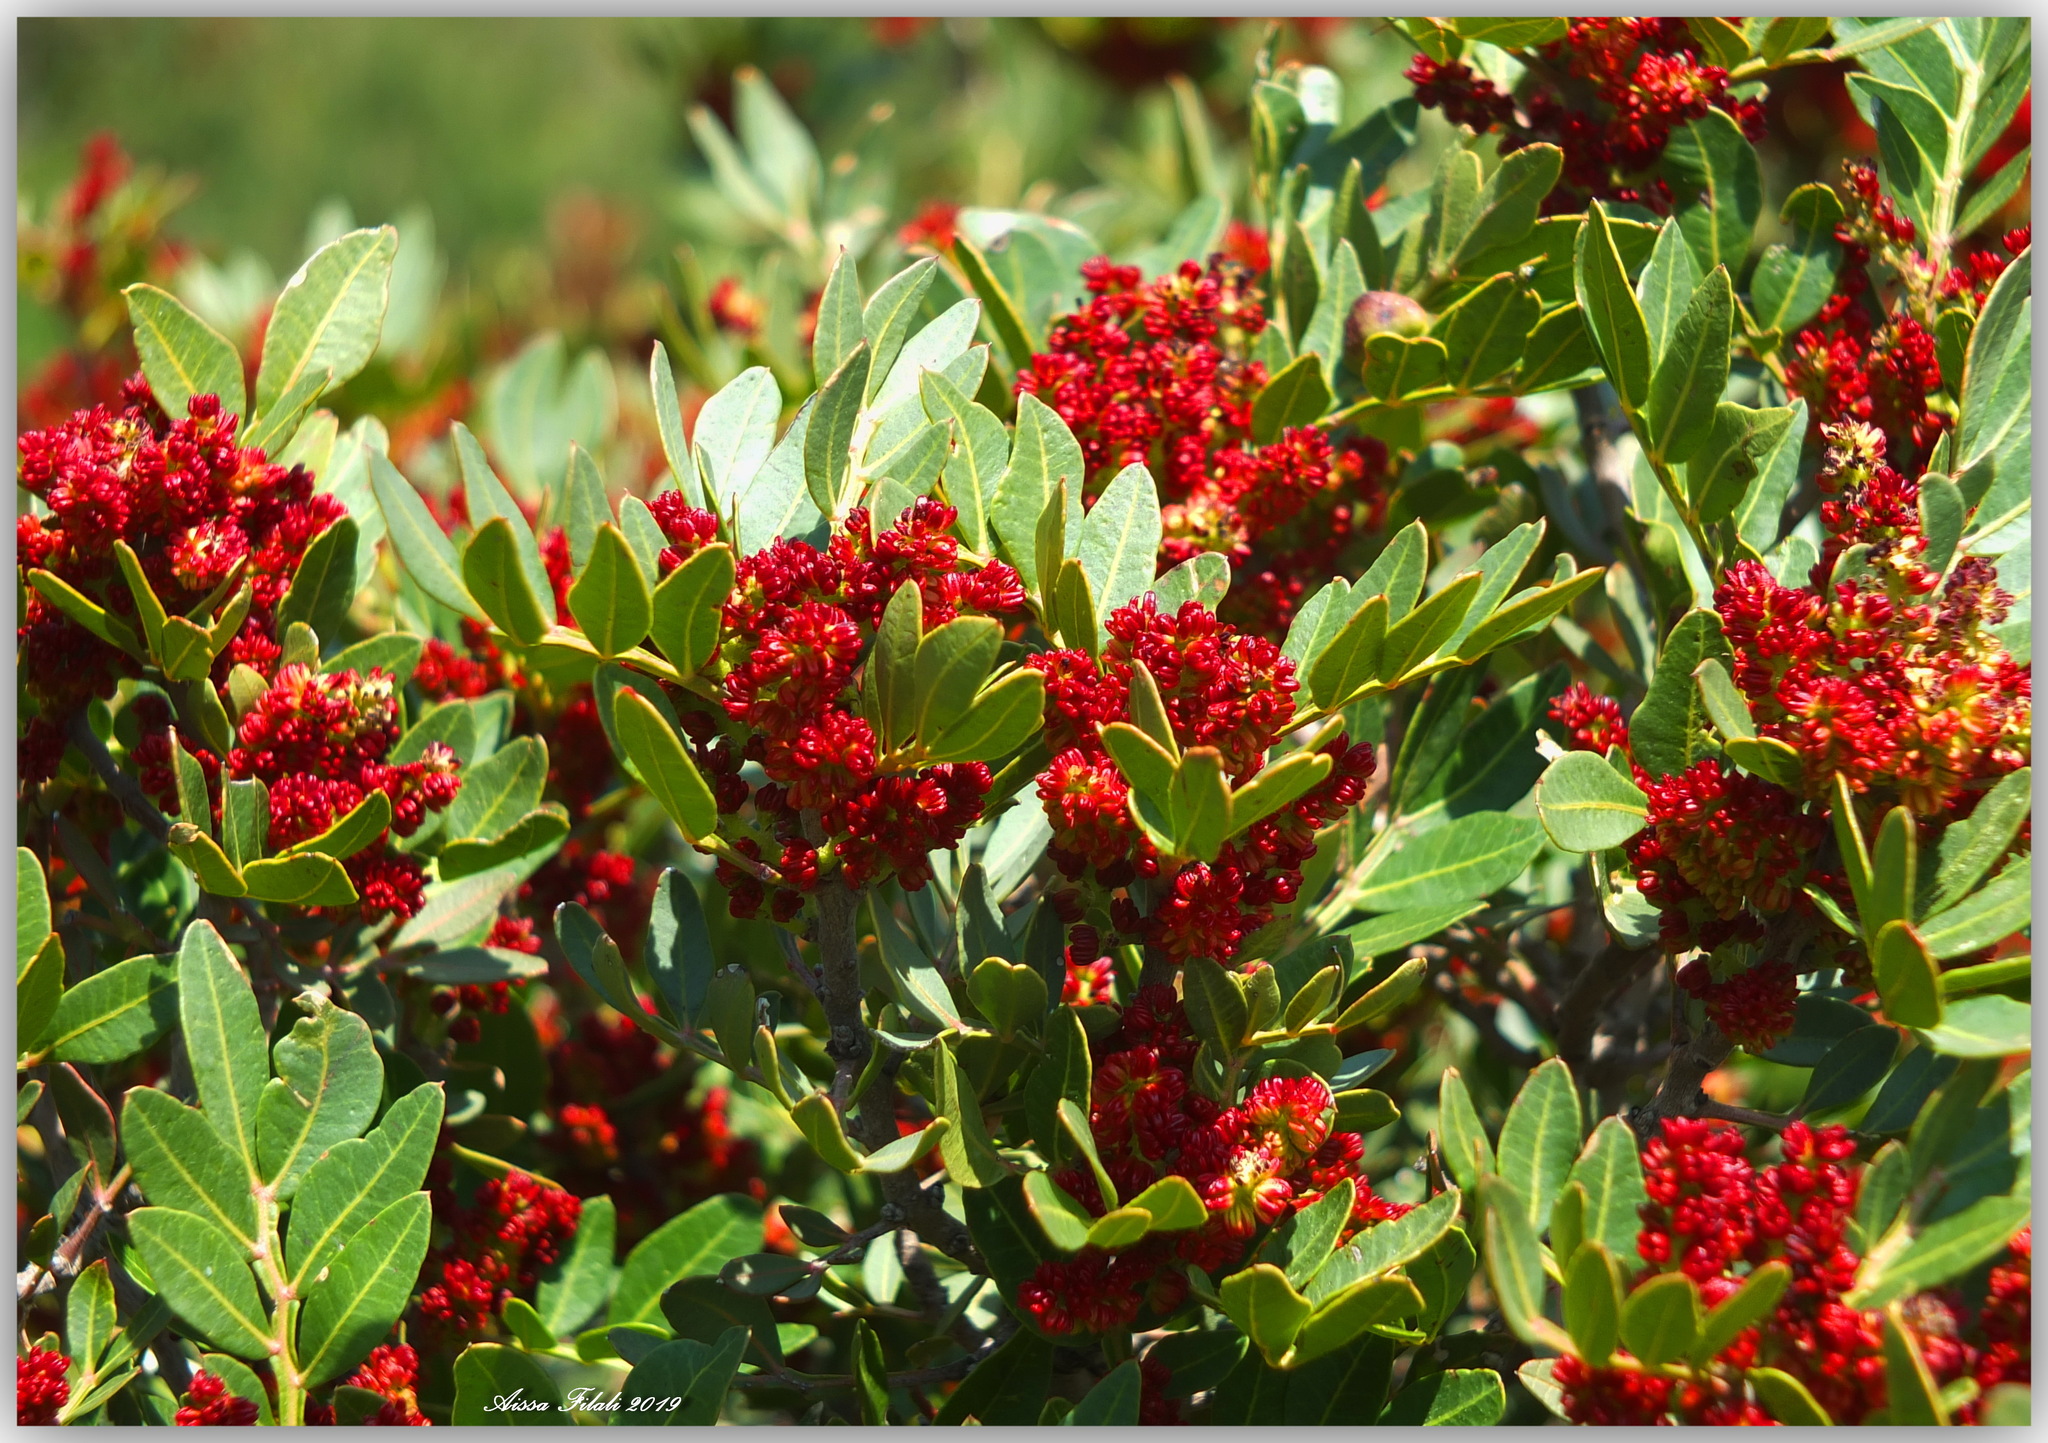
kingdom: Plantae
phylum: Tracheophyta
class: Magnoliopsida
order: Sapindales
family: Anacardiaceae
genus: Pistacia
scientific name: Pistacia lentiscus
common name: Lentisk
